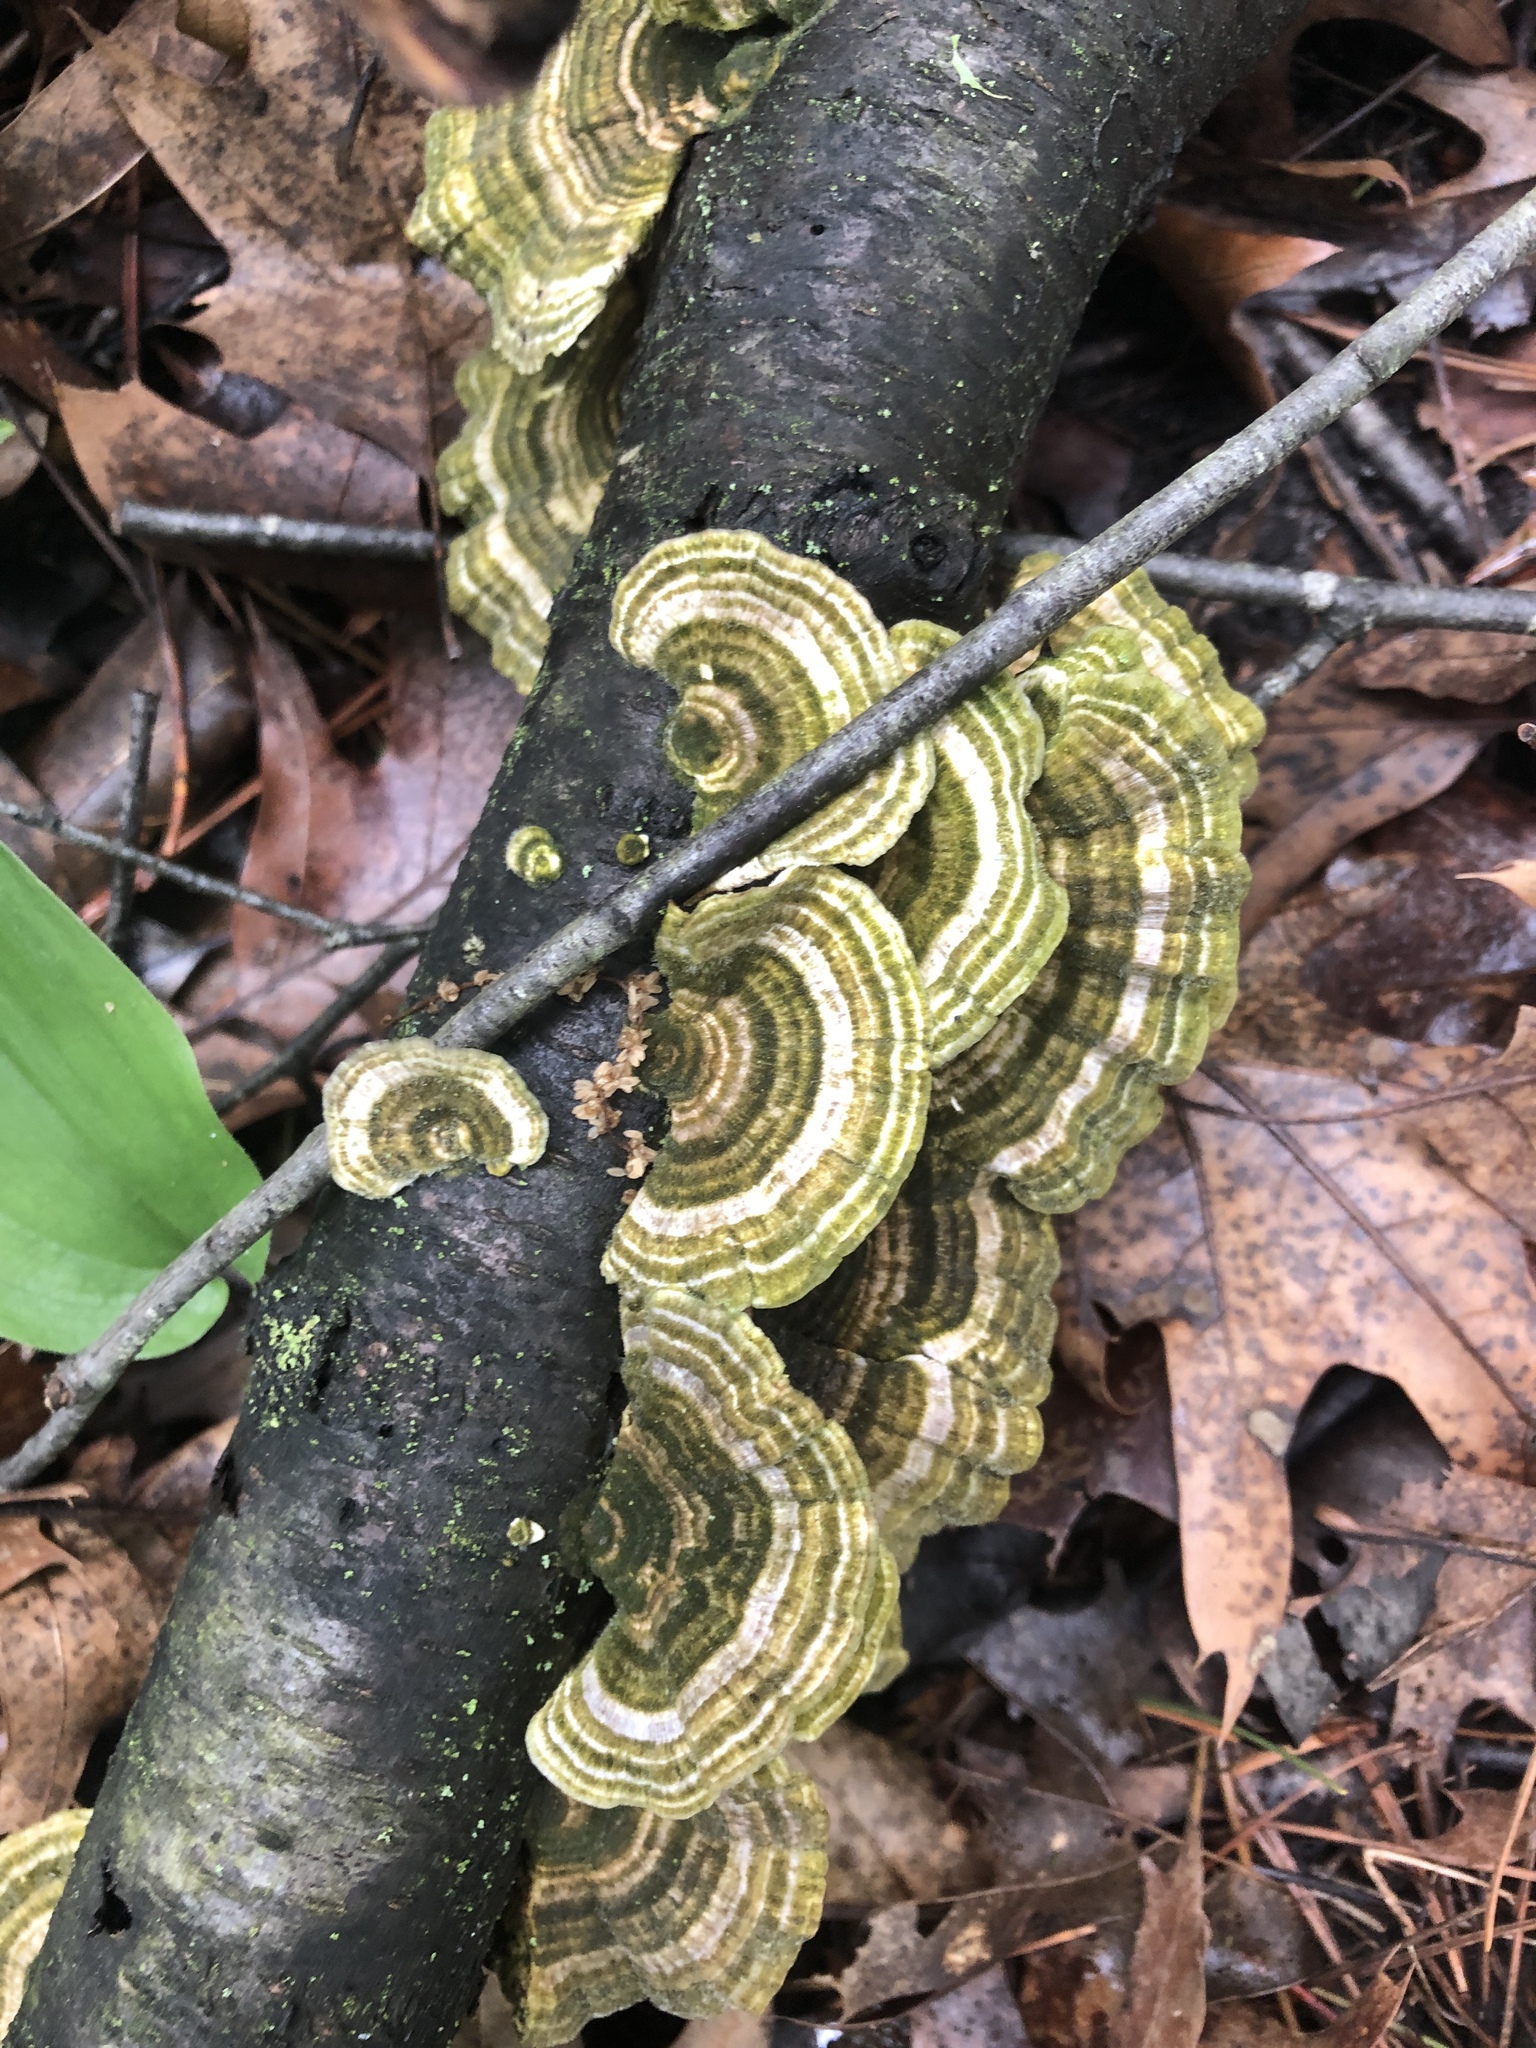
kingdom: Fungi
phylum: Basidiomycota
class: Agaricomycetes
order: Polyporales
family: Polyporaceae
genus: Trametes
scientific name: Trametes versicolor
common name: Turkeytail
